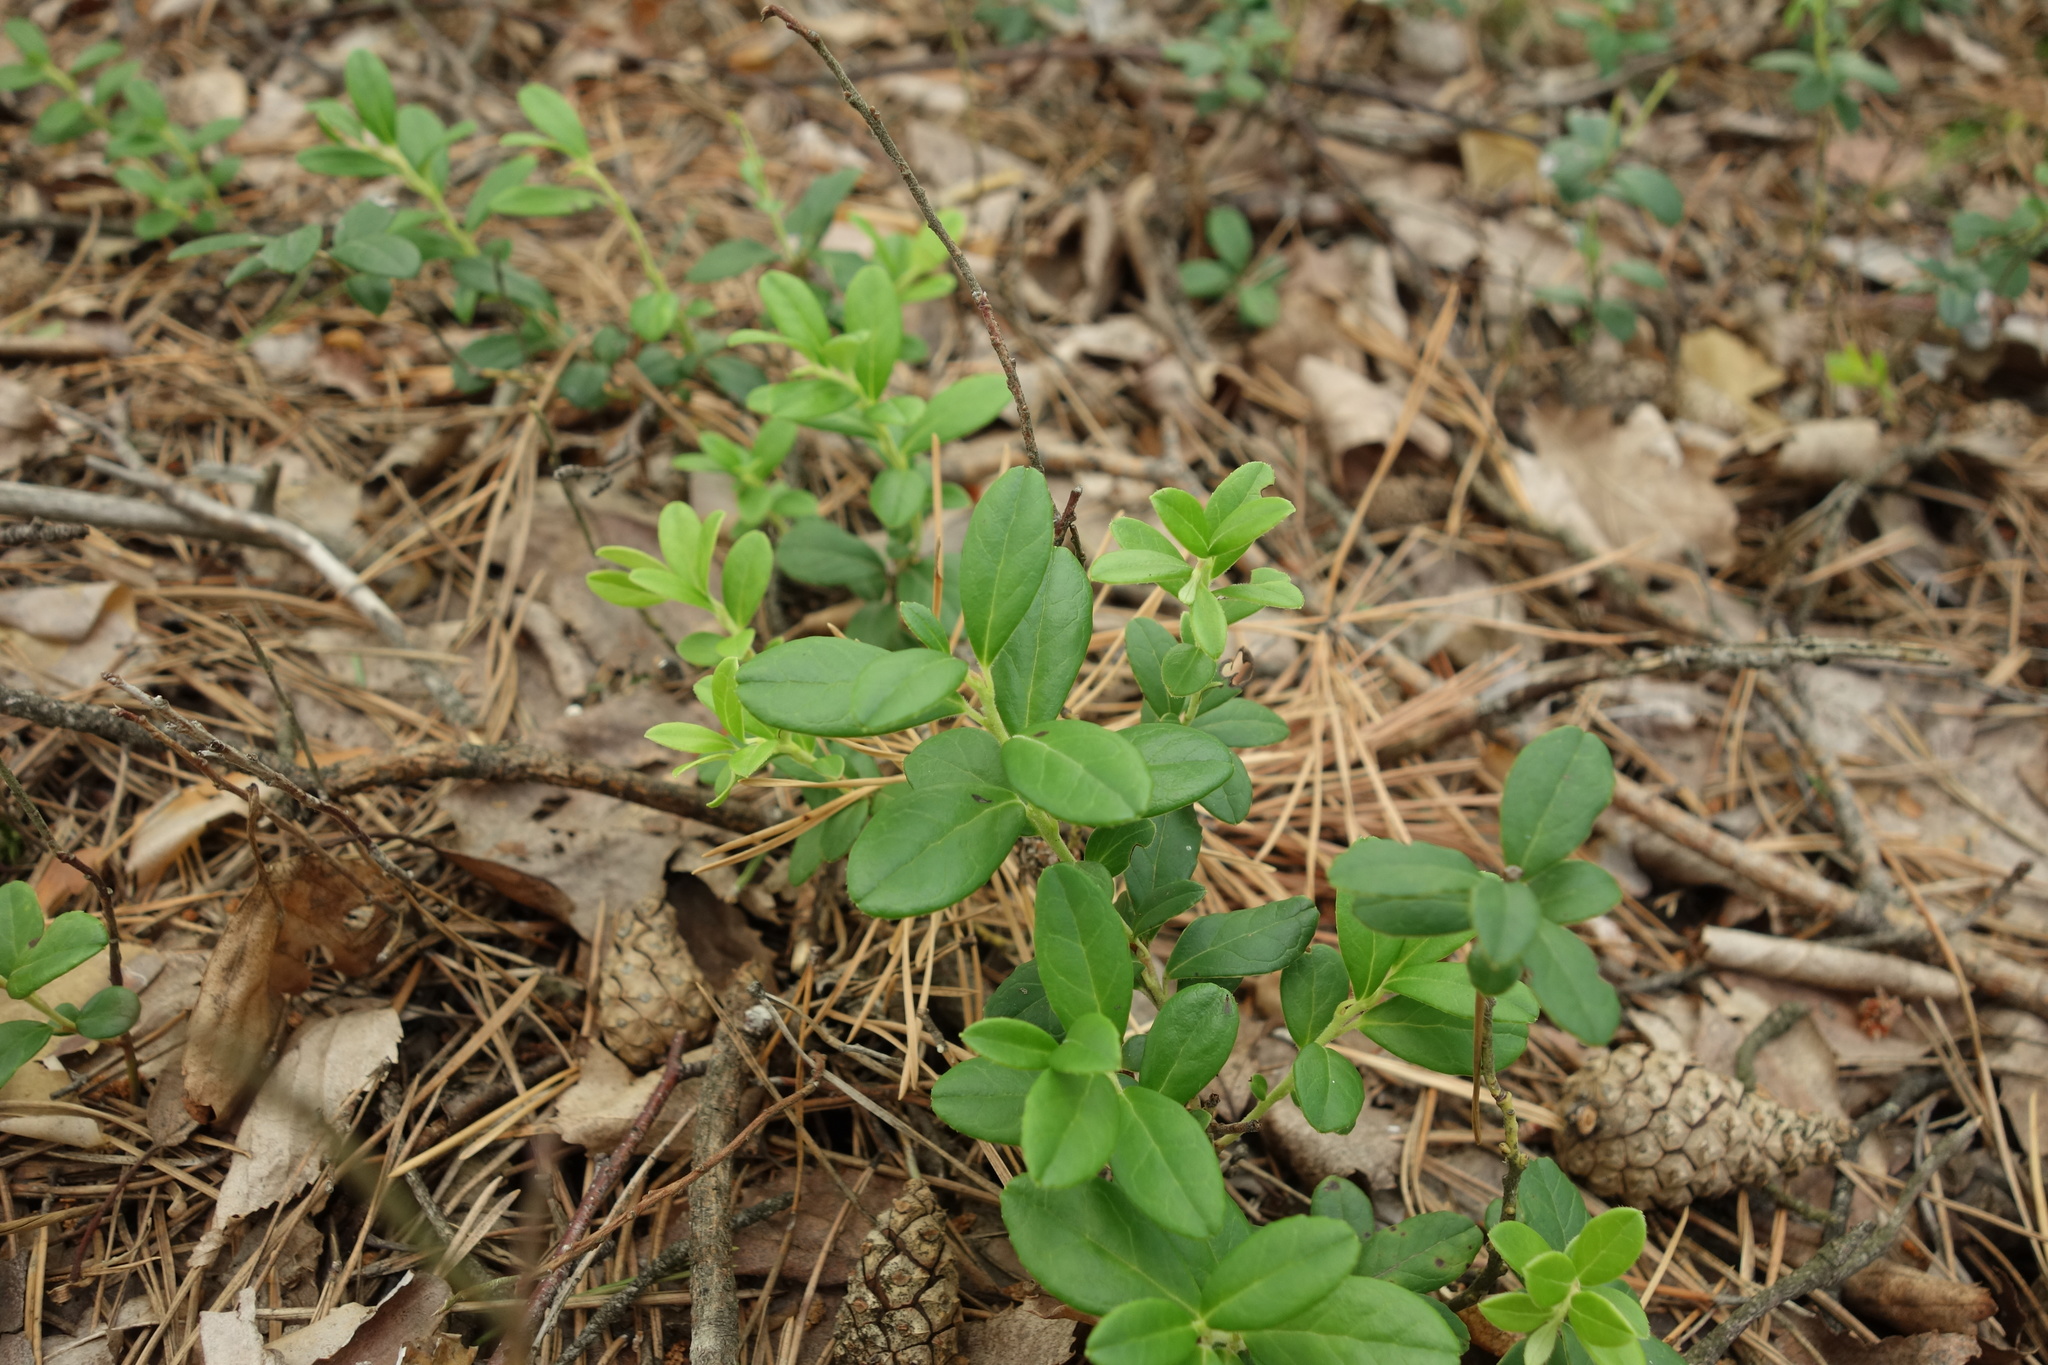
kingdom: Plantae
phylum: Tracheophyta
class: Magnoliopsida
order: Ericales
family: Ericaceae
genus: Vaccinium
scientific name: Vaccinium vitis-idaea
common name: Cowberry
